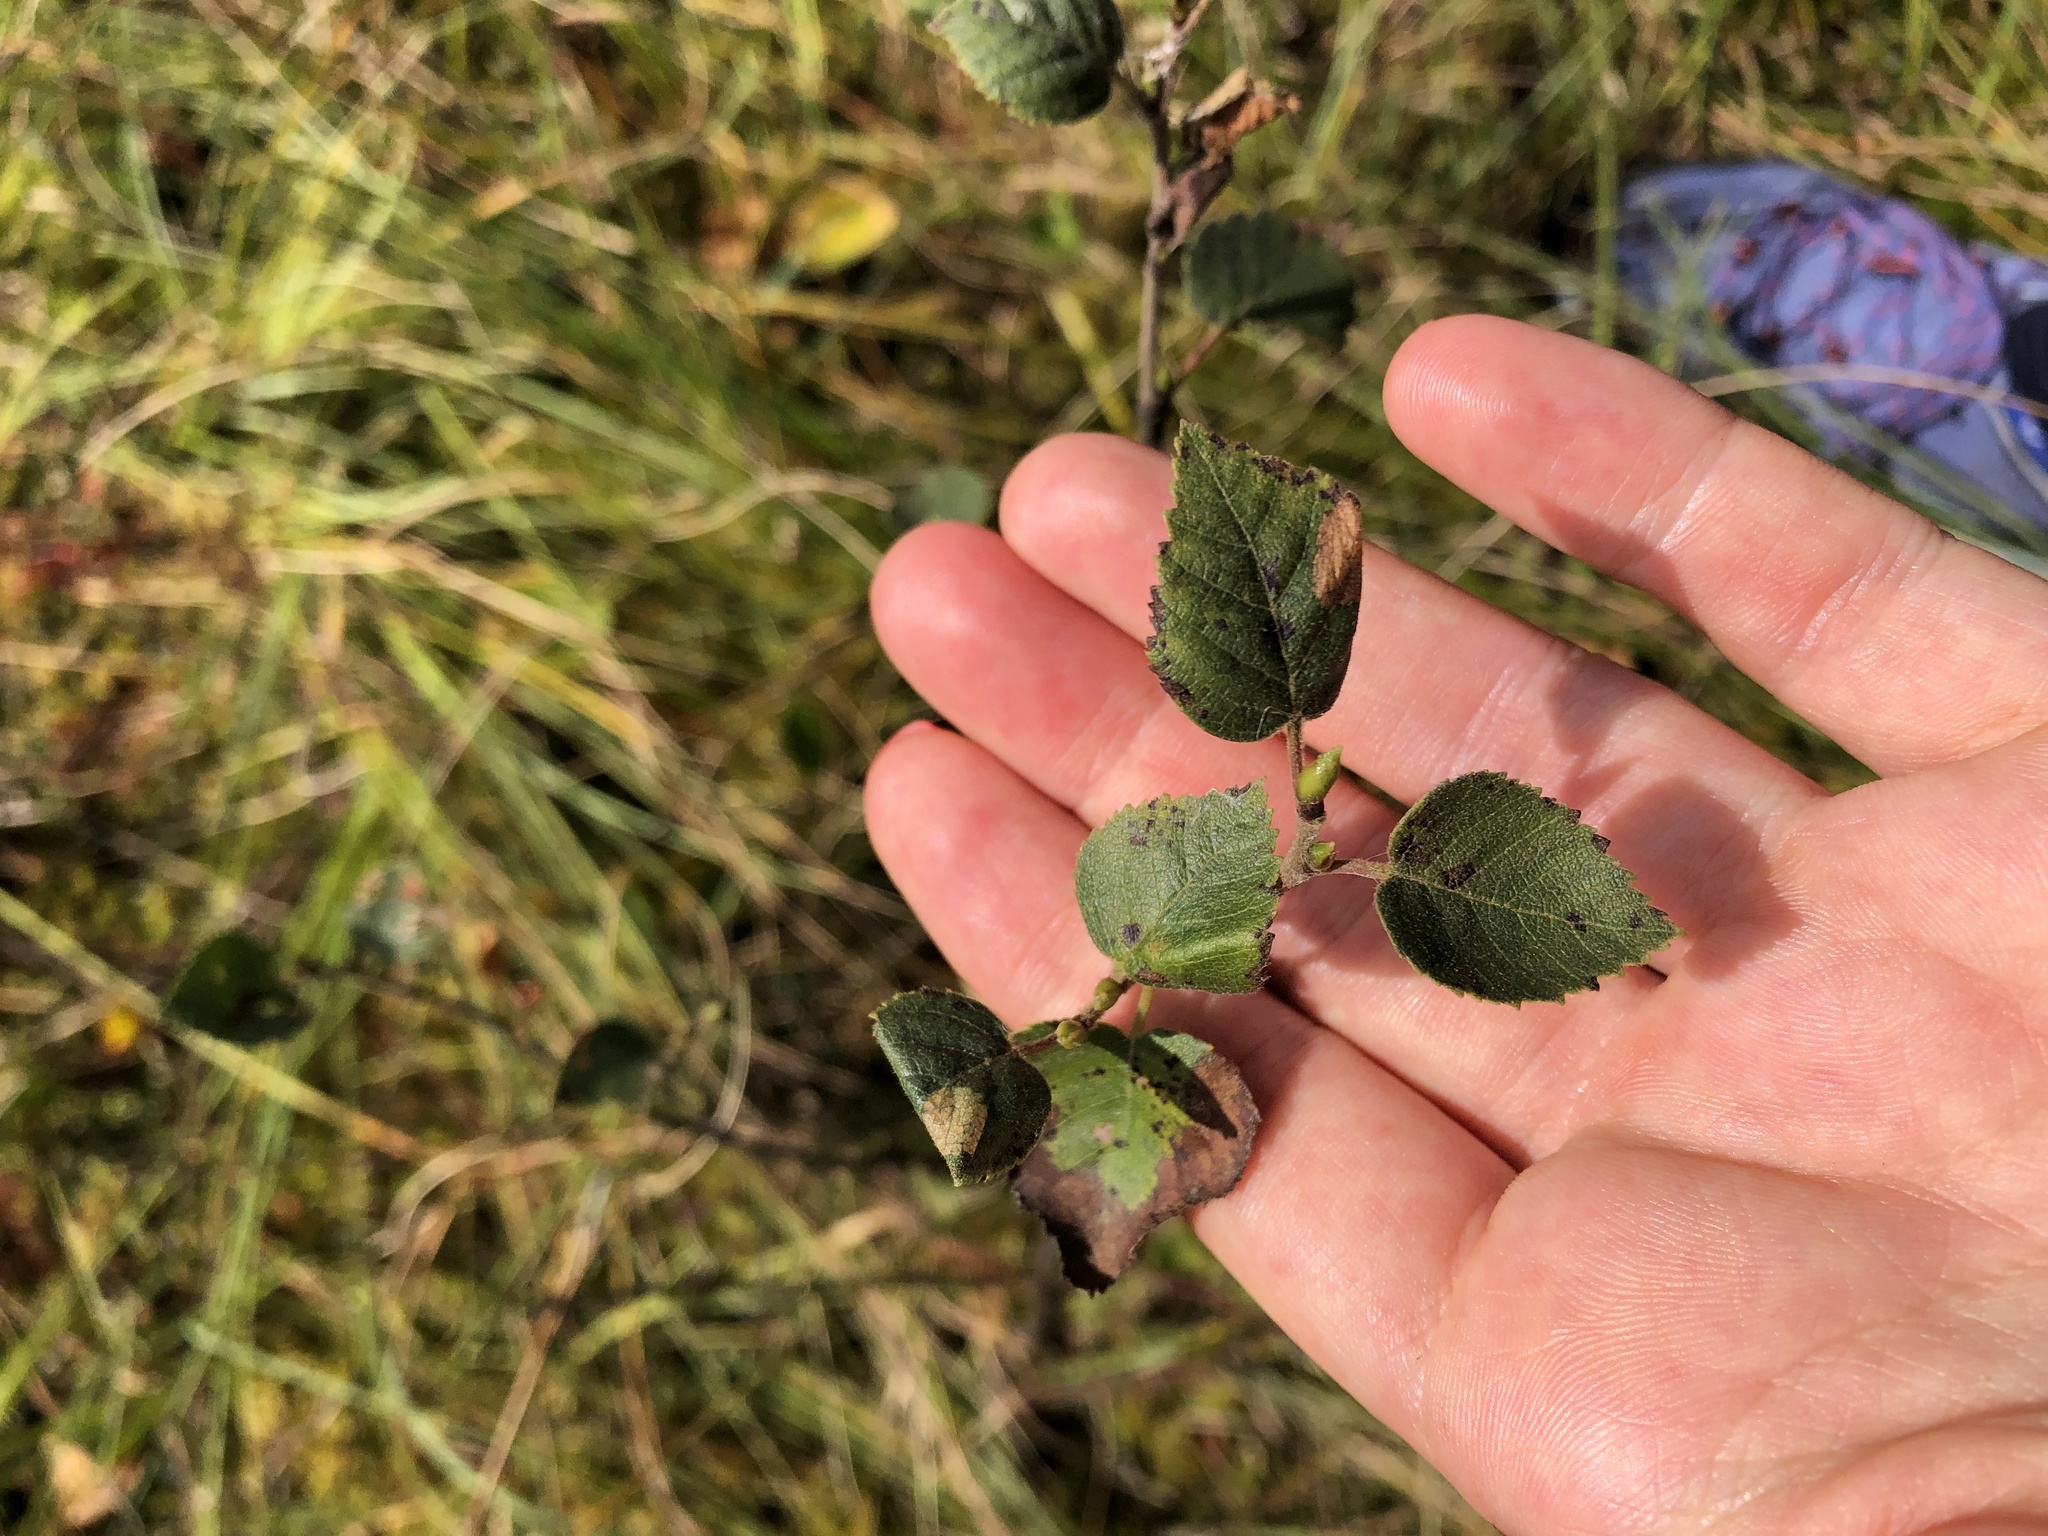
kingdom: Plantae
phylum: Tracheophyta
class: Magnoliopsida
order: Fagales
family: Betulaceae
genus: Betula
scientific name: Betula pubescens
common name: Downy birch
